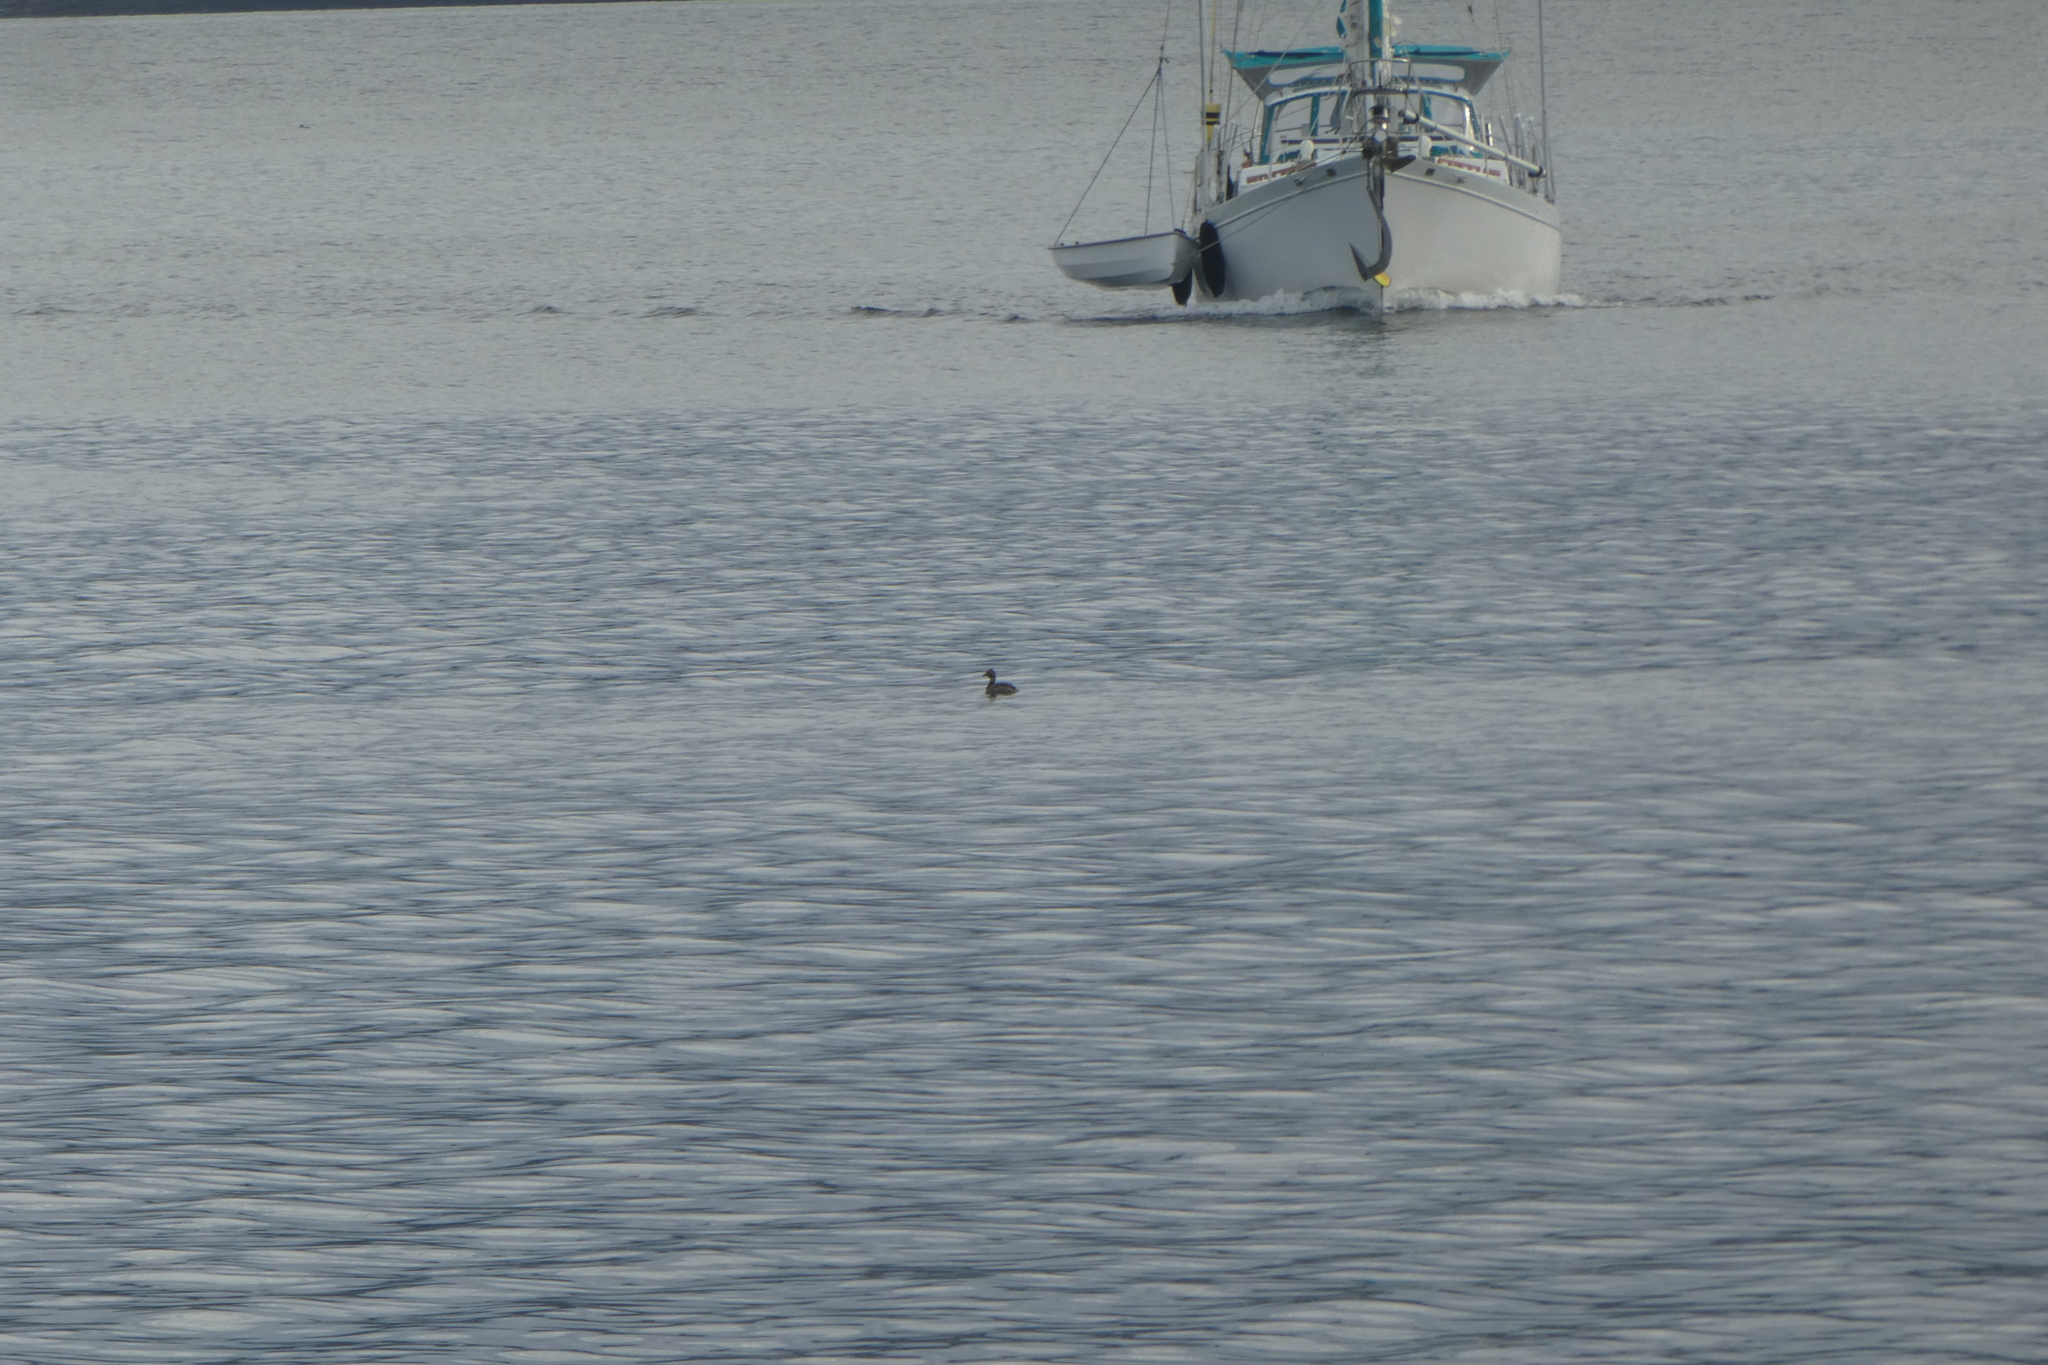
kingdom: Animalia
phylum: Chordata
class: Aves
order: Podicipediformes
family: Podicipedidae
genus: Podiceps
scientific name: Podiceps auritus
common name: Horned grebe
